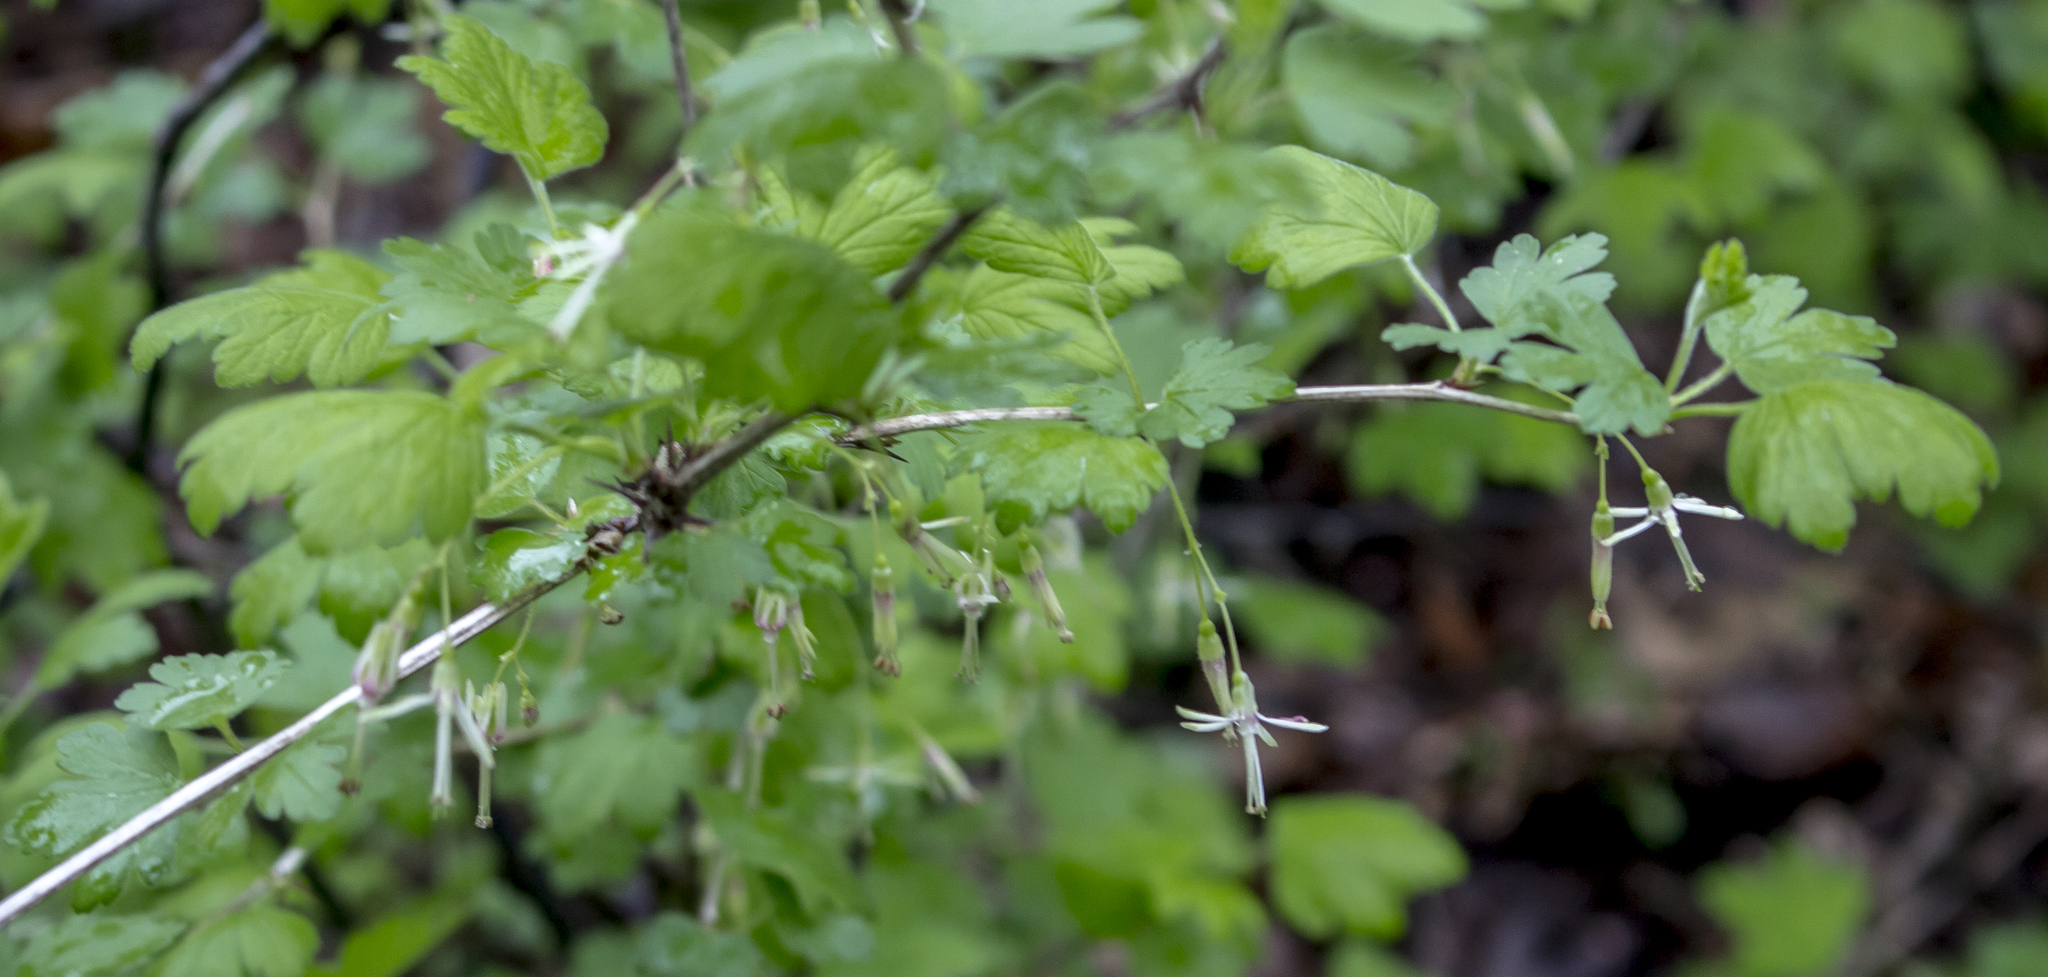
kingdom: Plantae
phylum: Tracheophyta
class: Magnoliopsida
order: Saxifragales
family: Grossulariaceae
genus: Ribes
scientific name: Ribes missouriense
